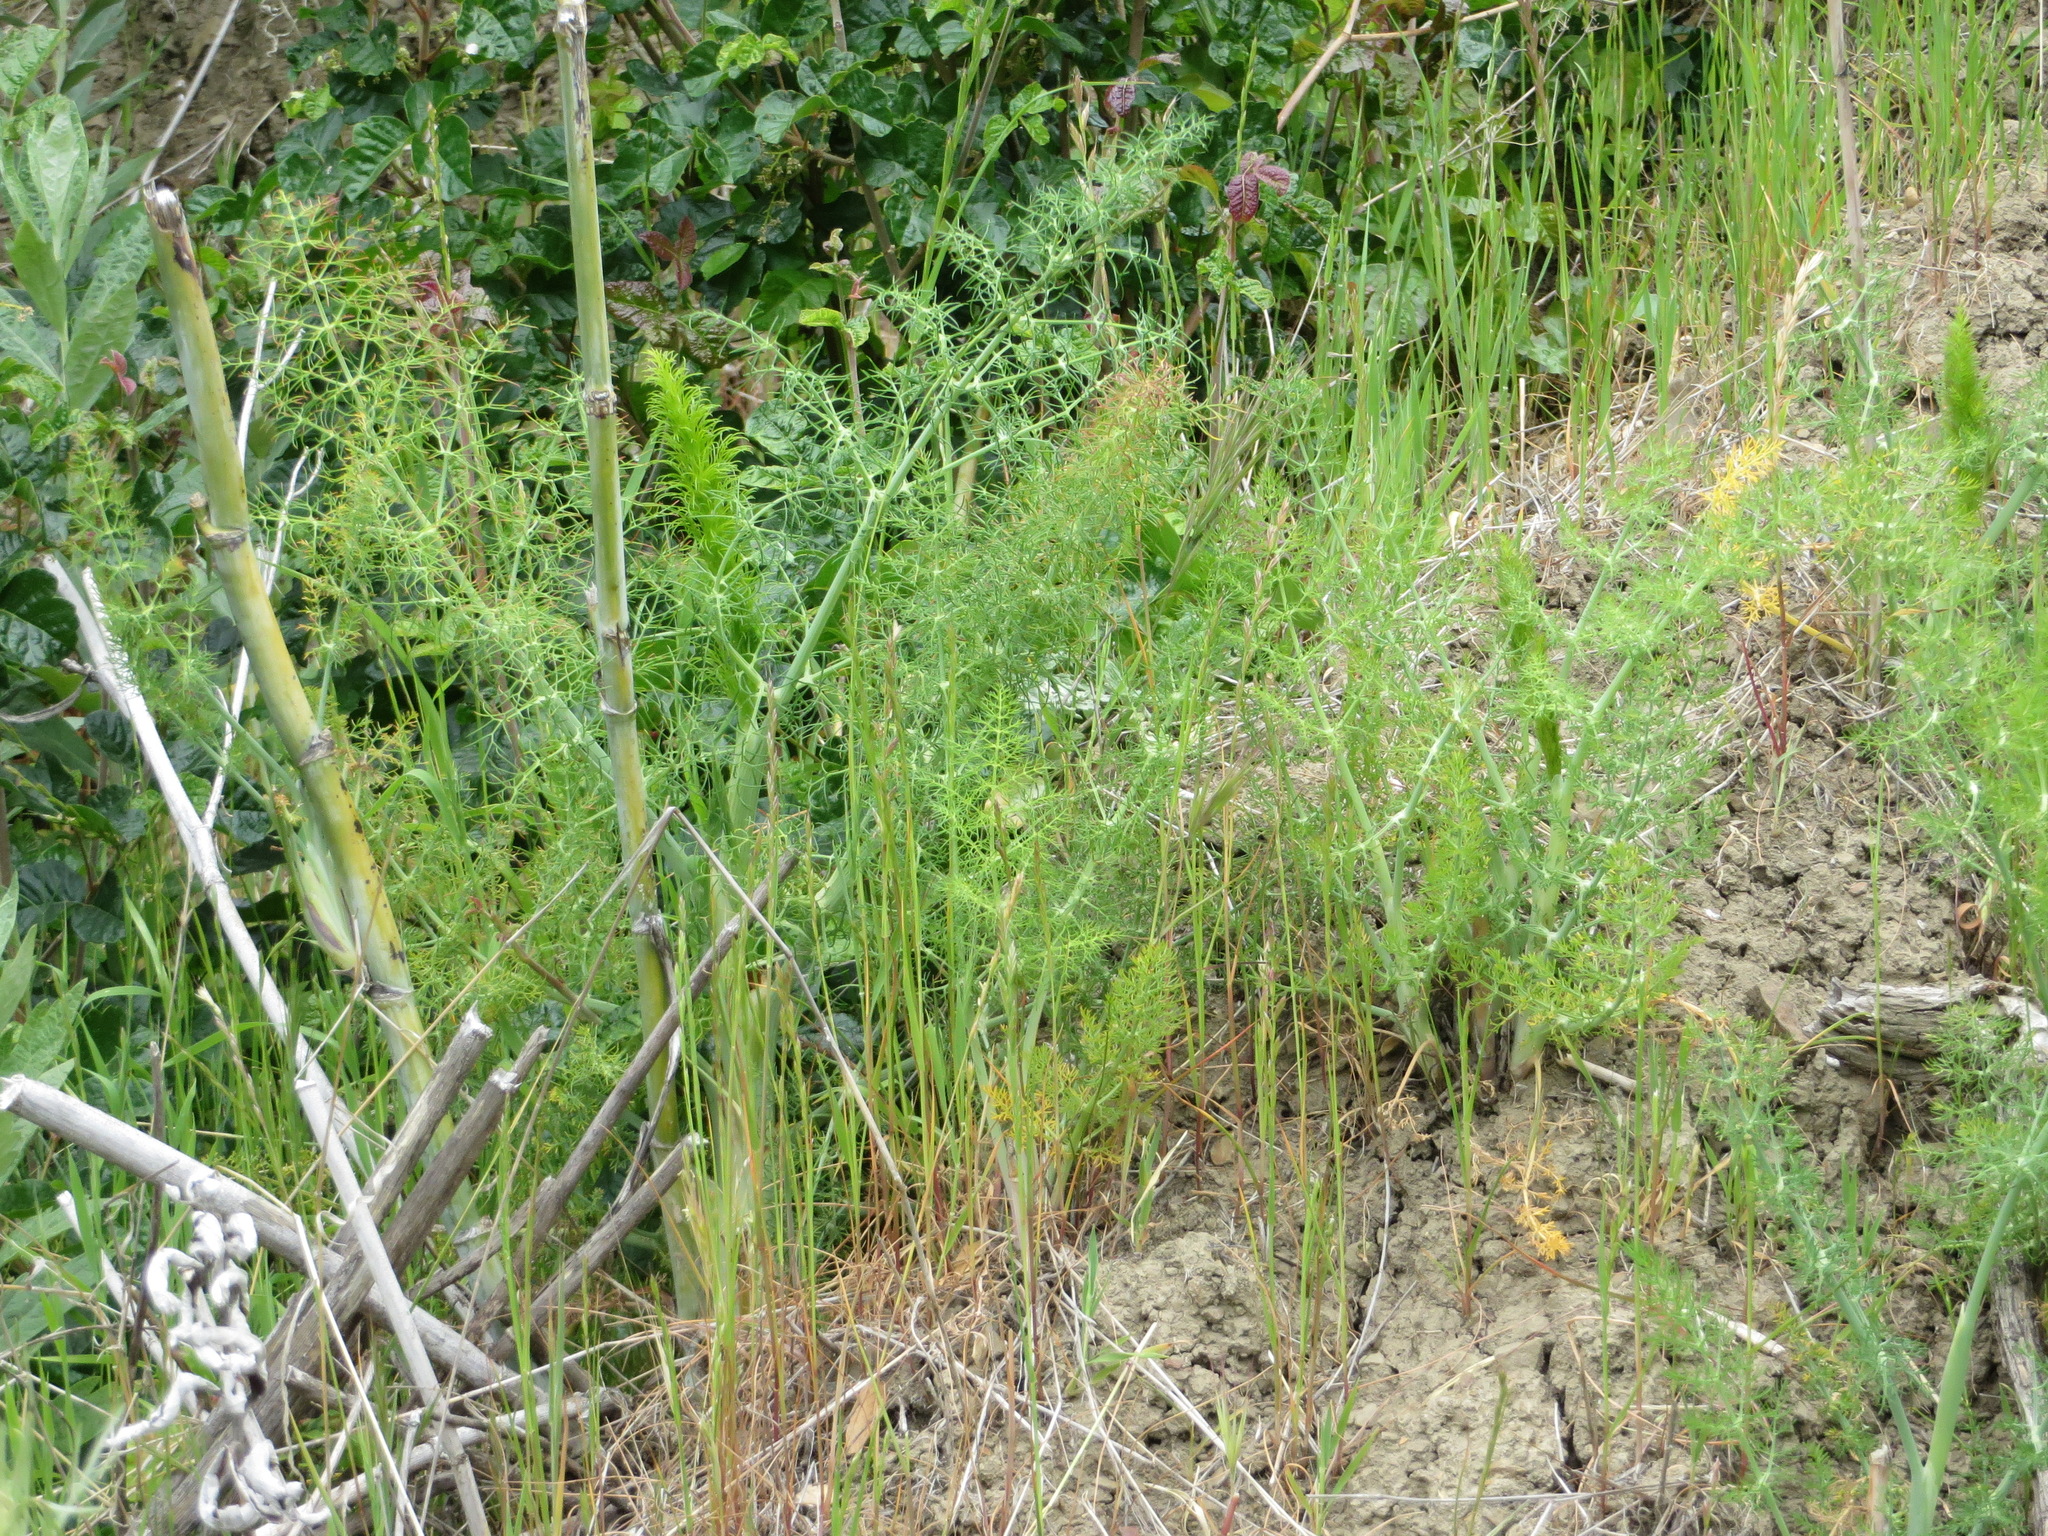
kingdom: Plantae
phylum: Tracheophyta
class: Magnoliopsida
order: Apiales
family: Apiaceae
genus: Foeniculum
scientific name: Foeniculum vulgare
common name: Fennel
